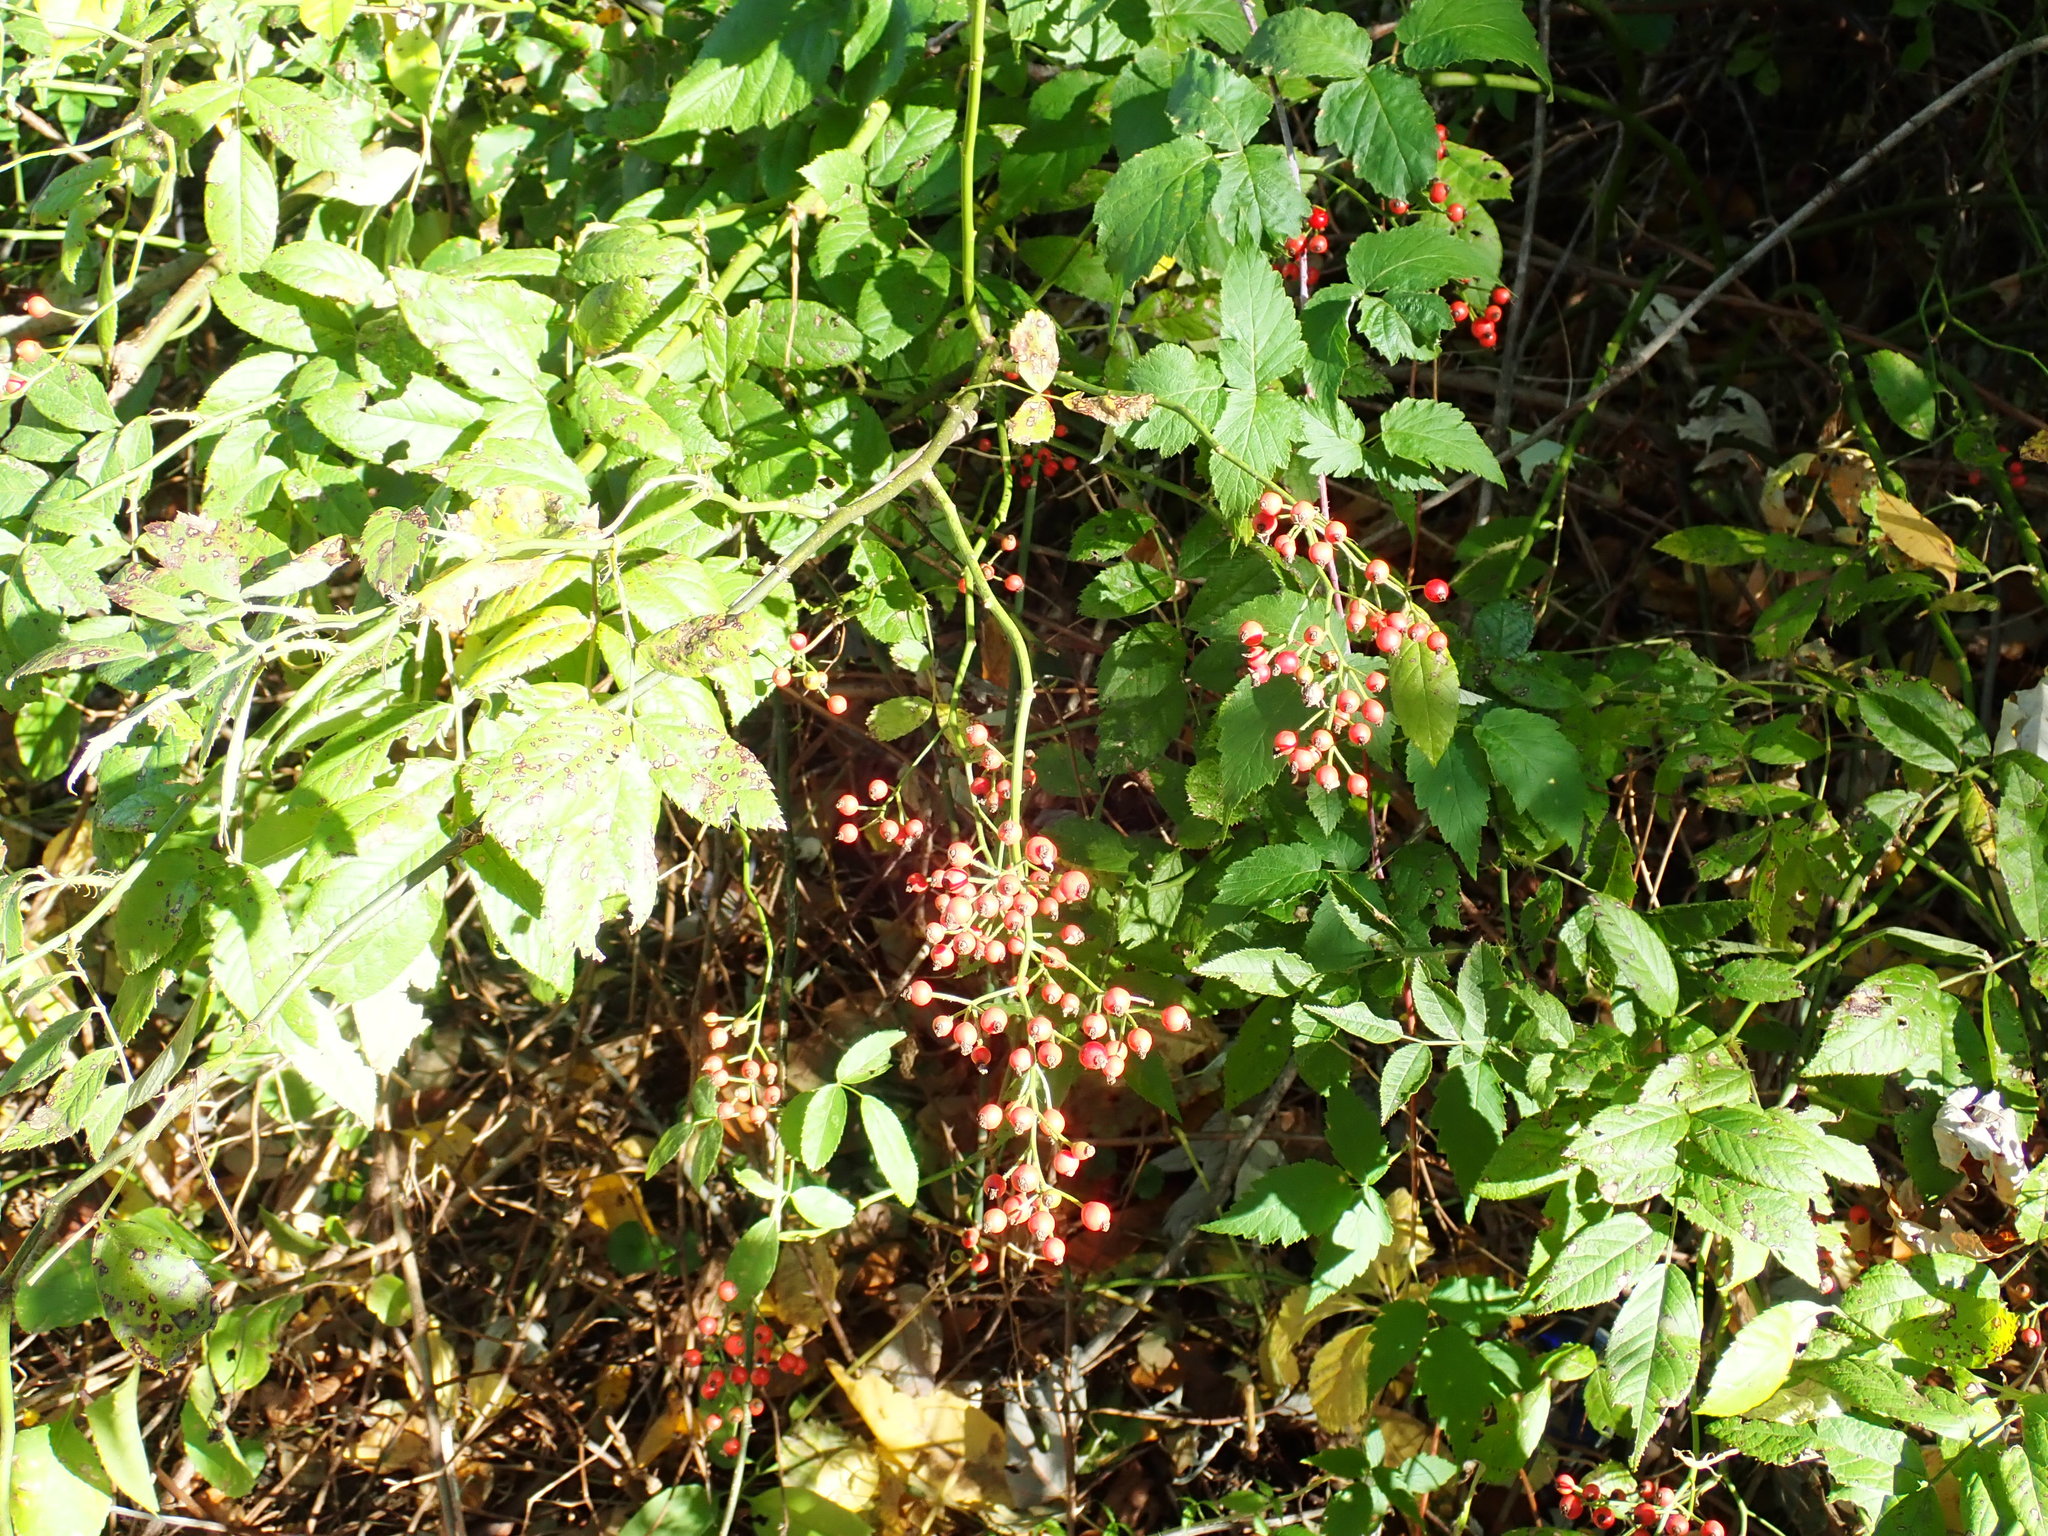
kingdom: Plantae
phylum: Tracheophyta
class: Magnoliopsida
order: Rosales
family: Rosaceae
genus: Rosa
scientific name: Rosa multiflora
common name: Multiflora rose
